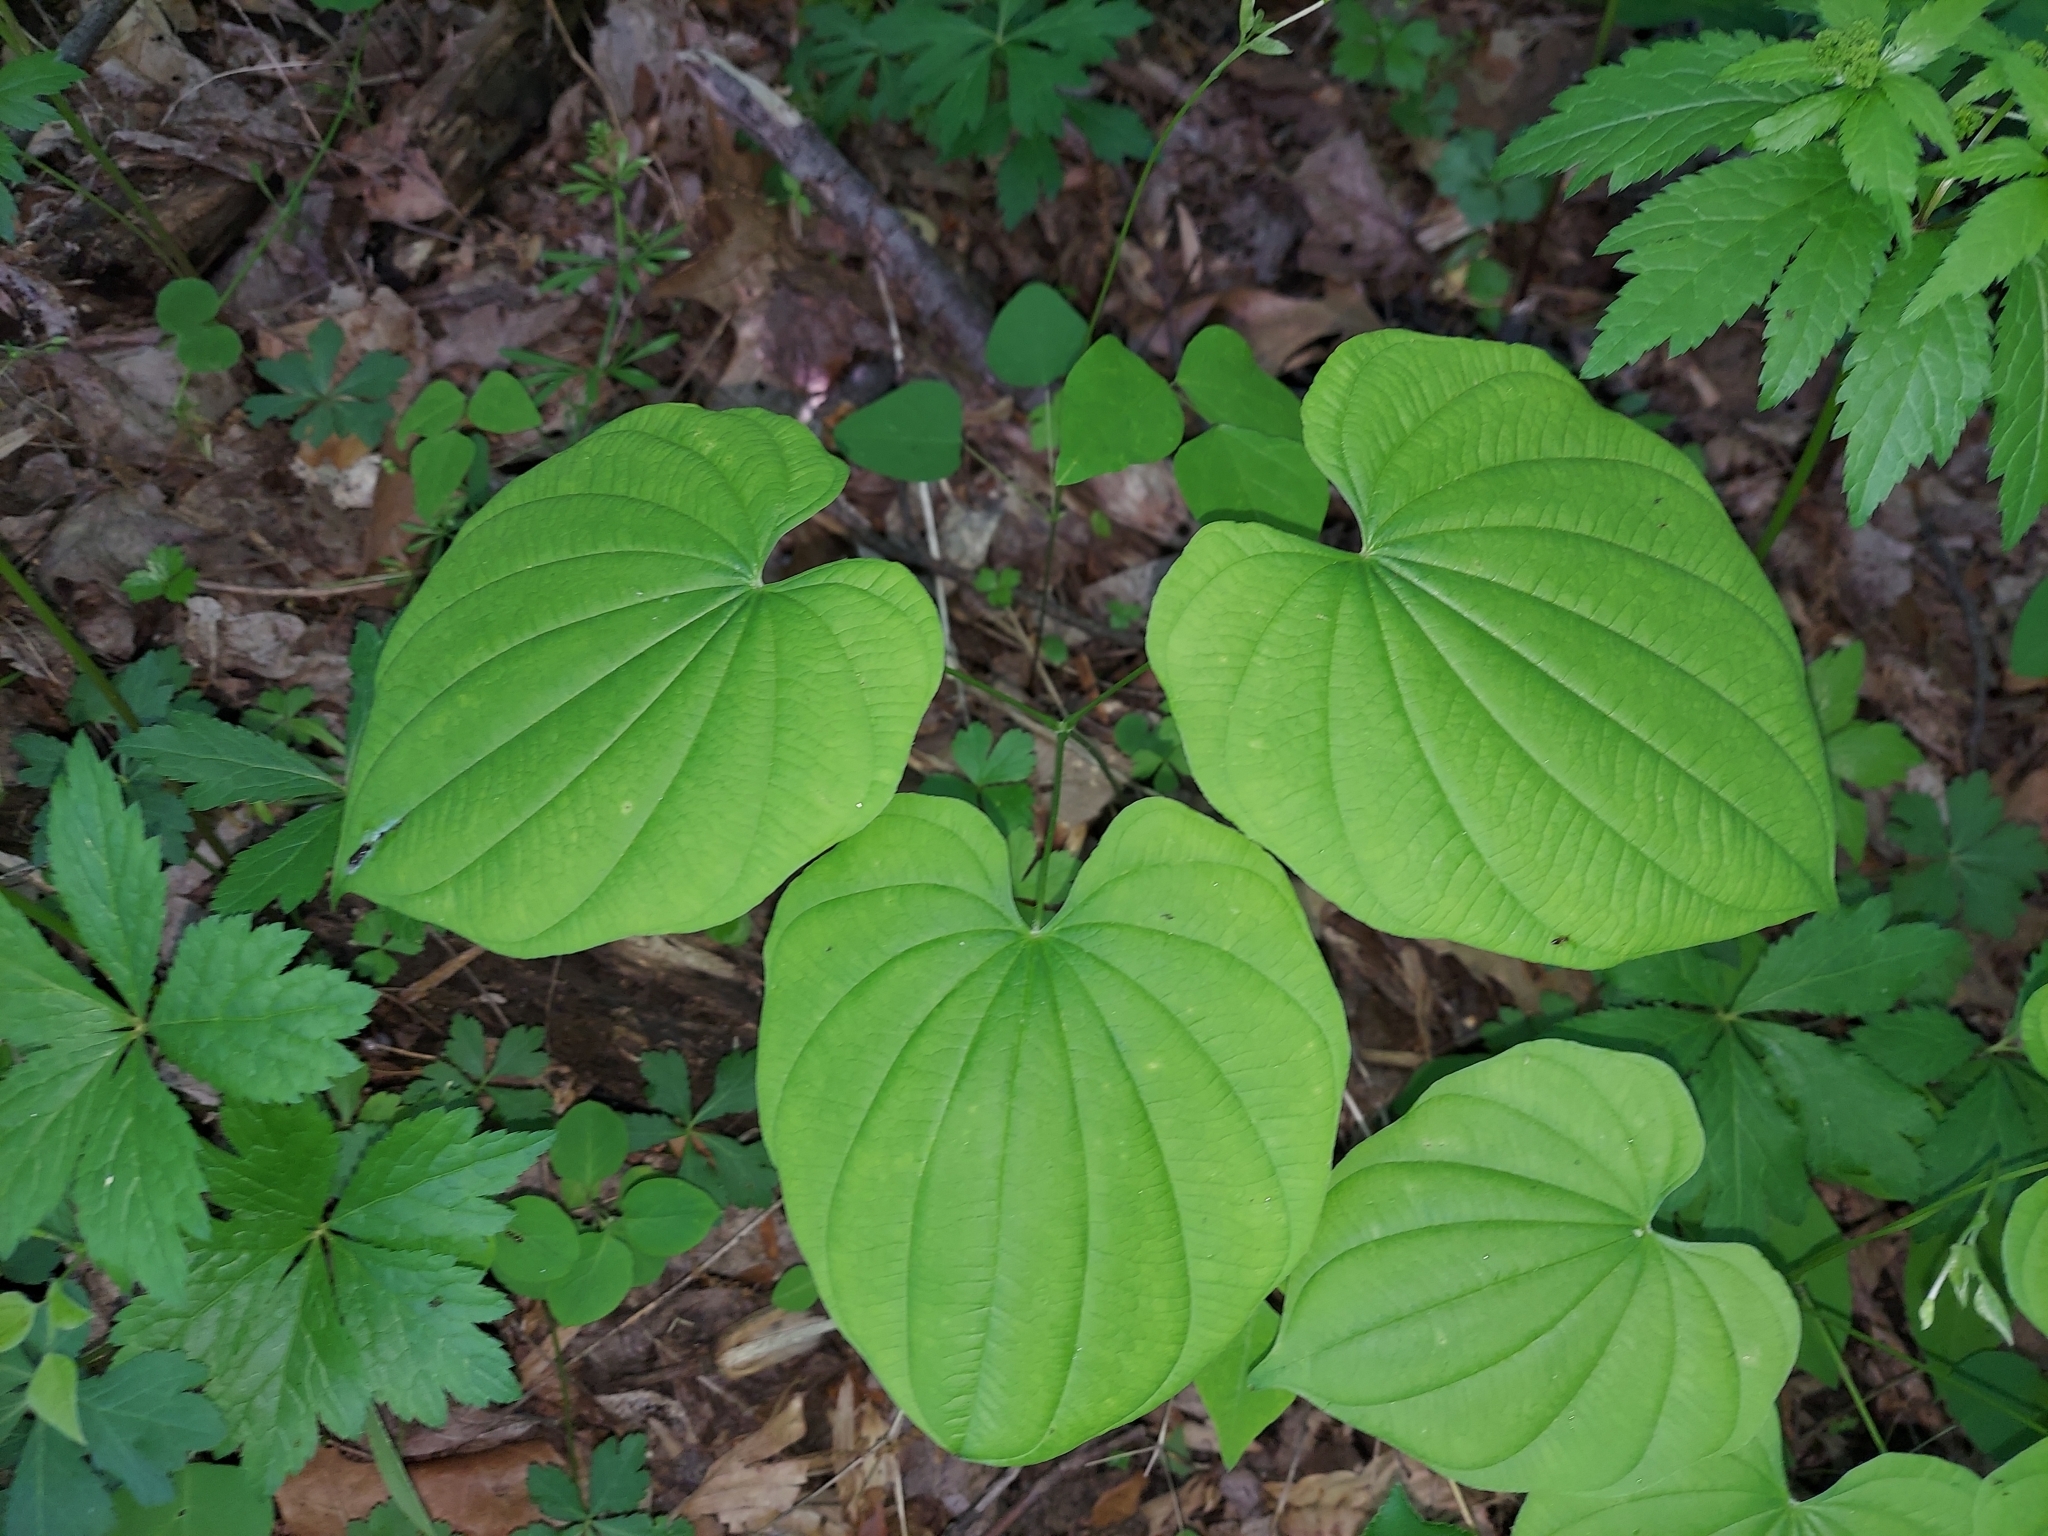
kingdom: Plantae
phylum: Tracheophyta
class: Liliopsida
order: Dioscoreales
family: Dioscoreaceae
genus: Dioscorea
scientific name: Dioscorea villosa
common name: Wild yam
